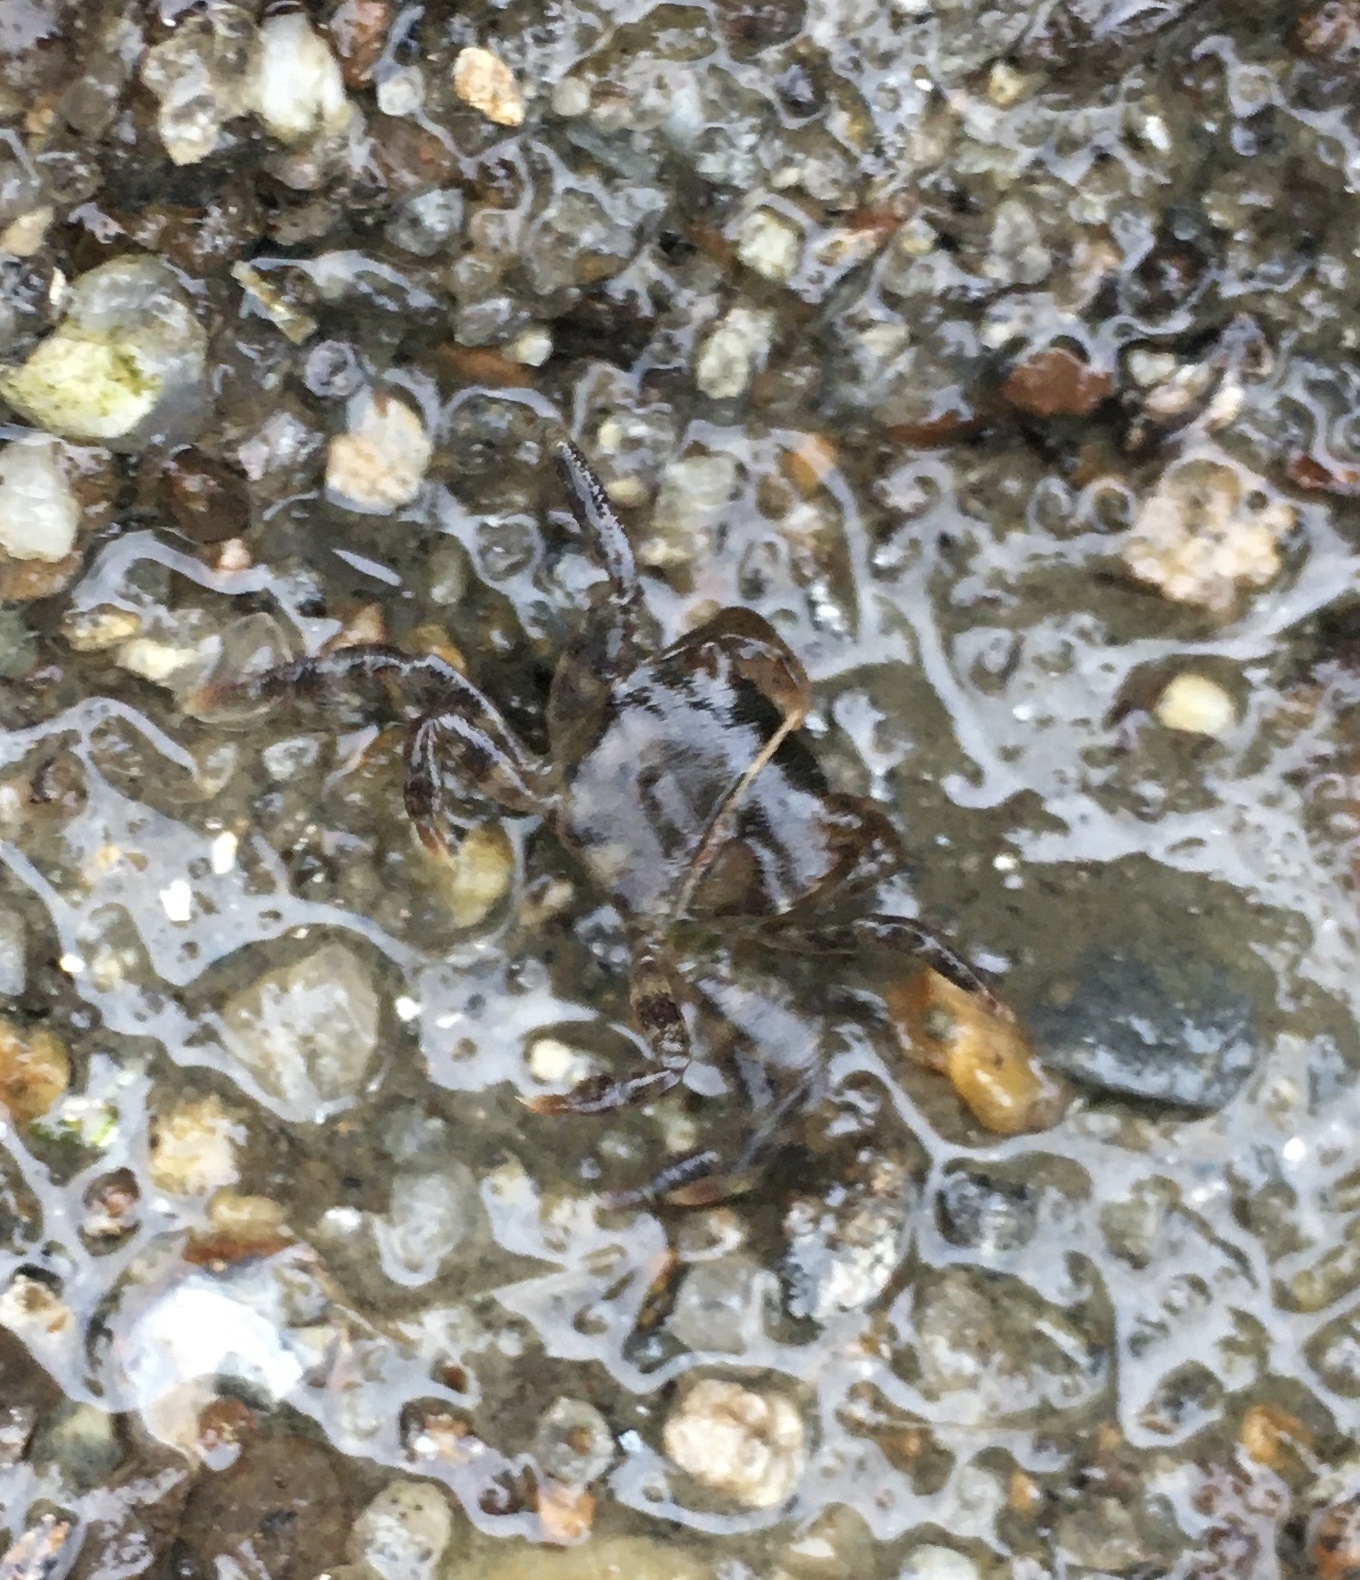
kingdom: Animalia
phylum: Arthropoda
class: Malacostraca
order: Decapoda
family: Varunidae
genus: Hemigrapsus
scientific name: Hemigrapsus sanguineus
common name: Asian shore crab
